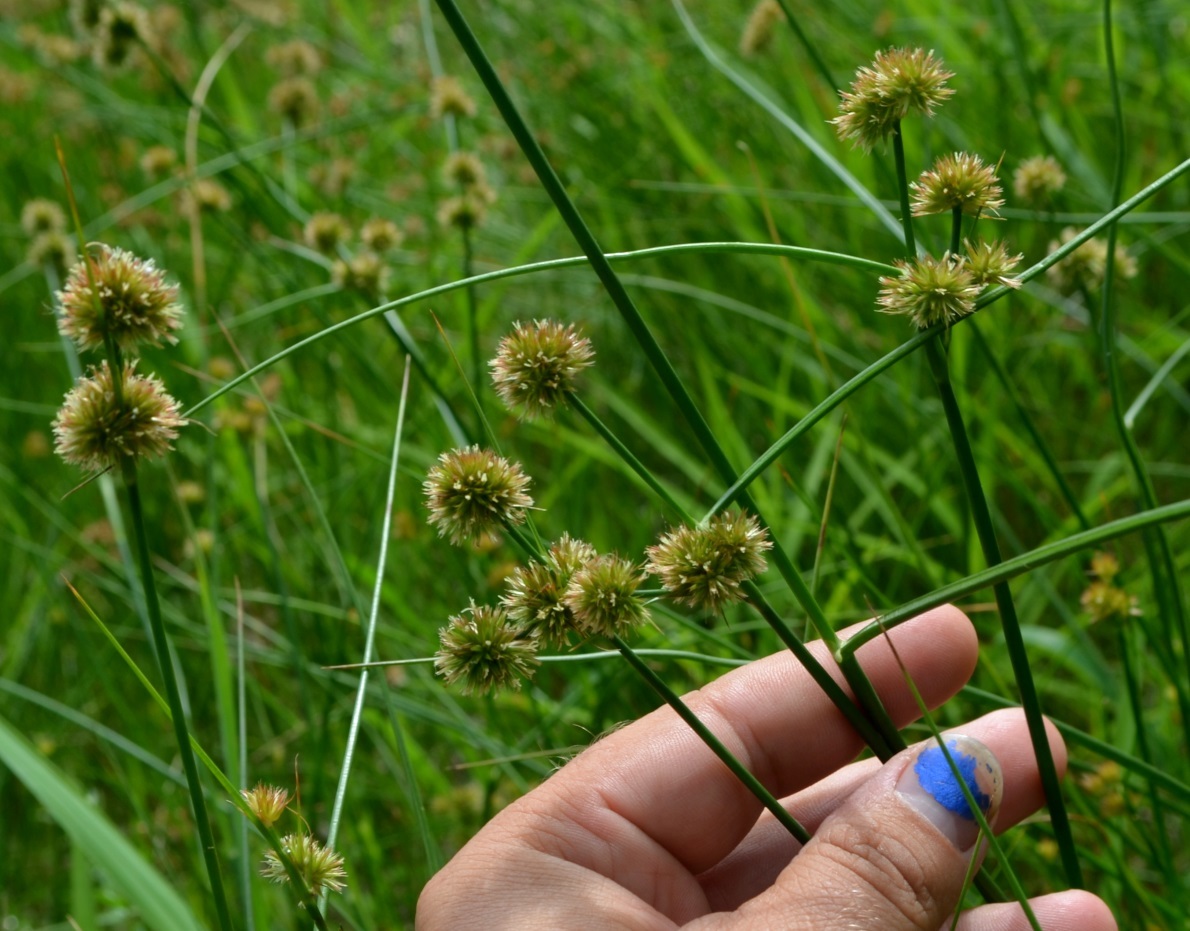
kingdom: Plantae
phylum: Tracheophyta
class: Liliopsida
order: Poales
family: Juncaceae
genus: Juncus
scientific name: Juncus nodosus
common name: Knotted rush
